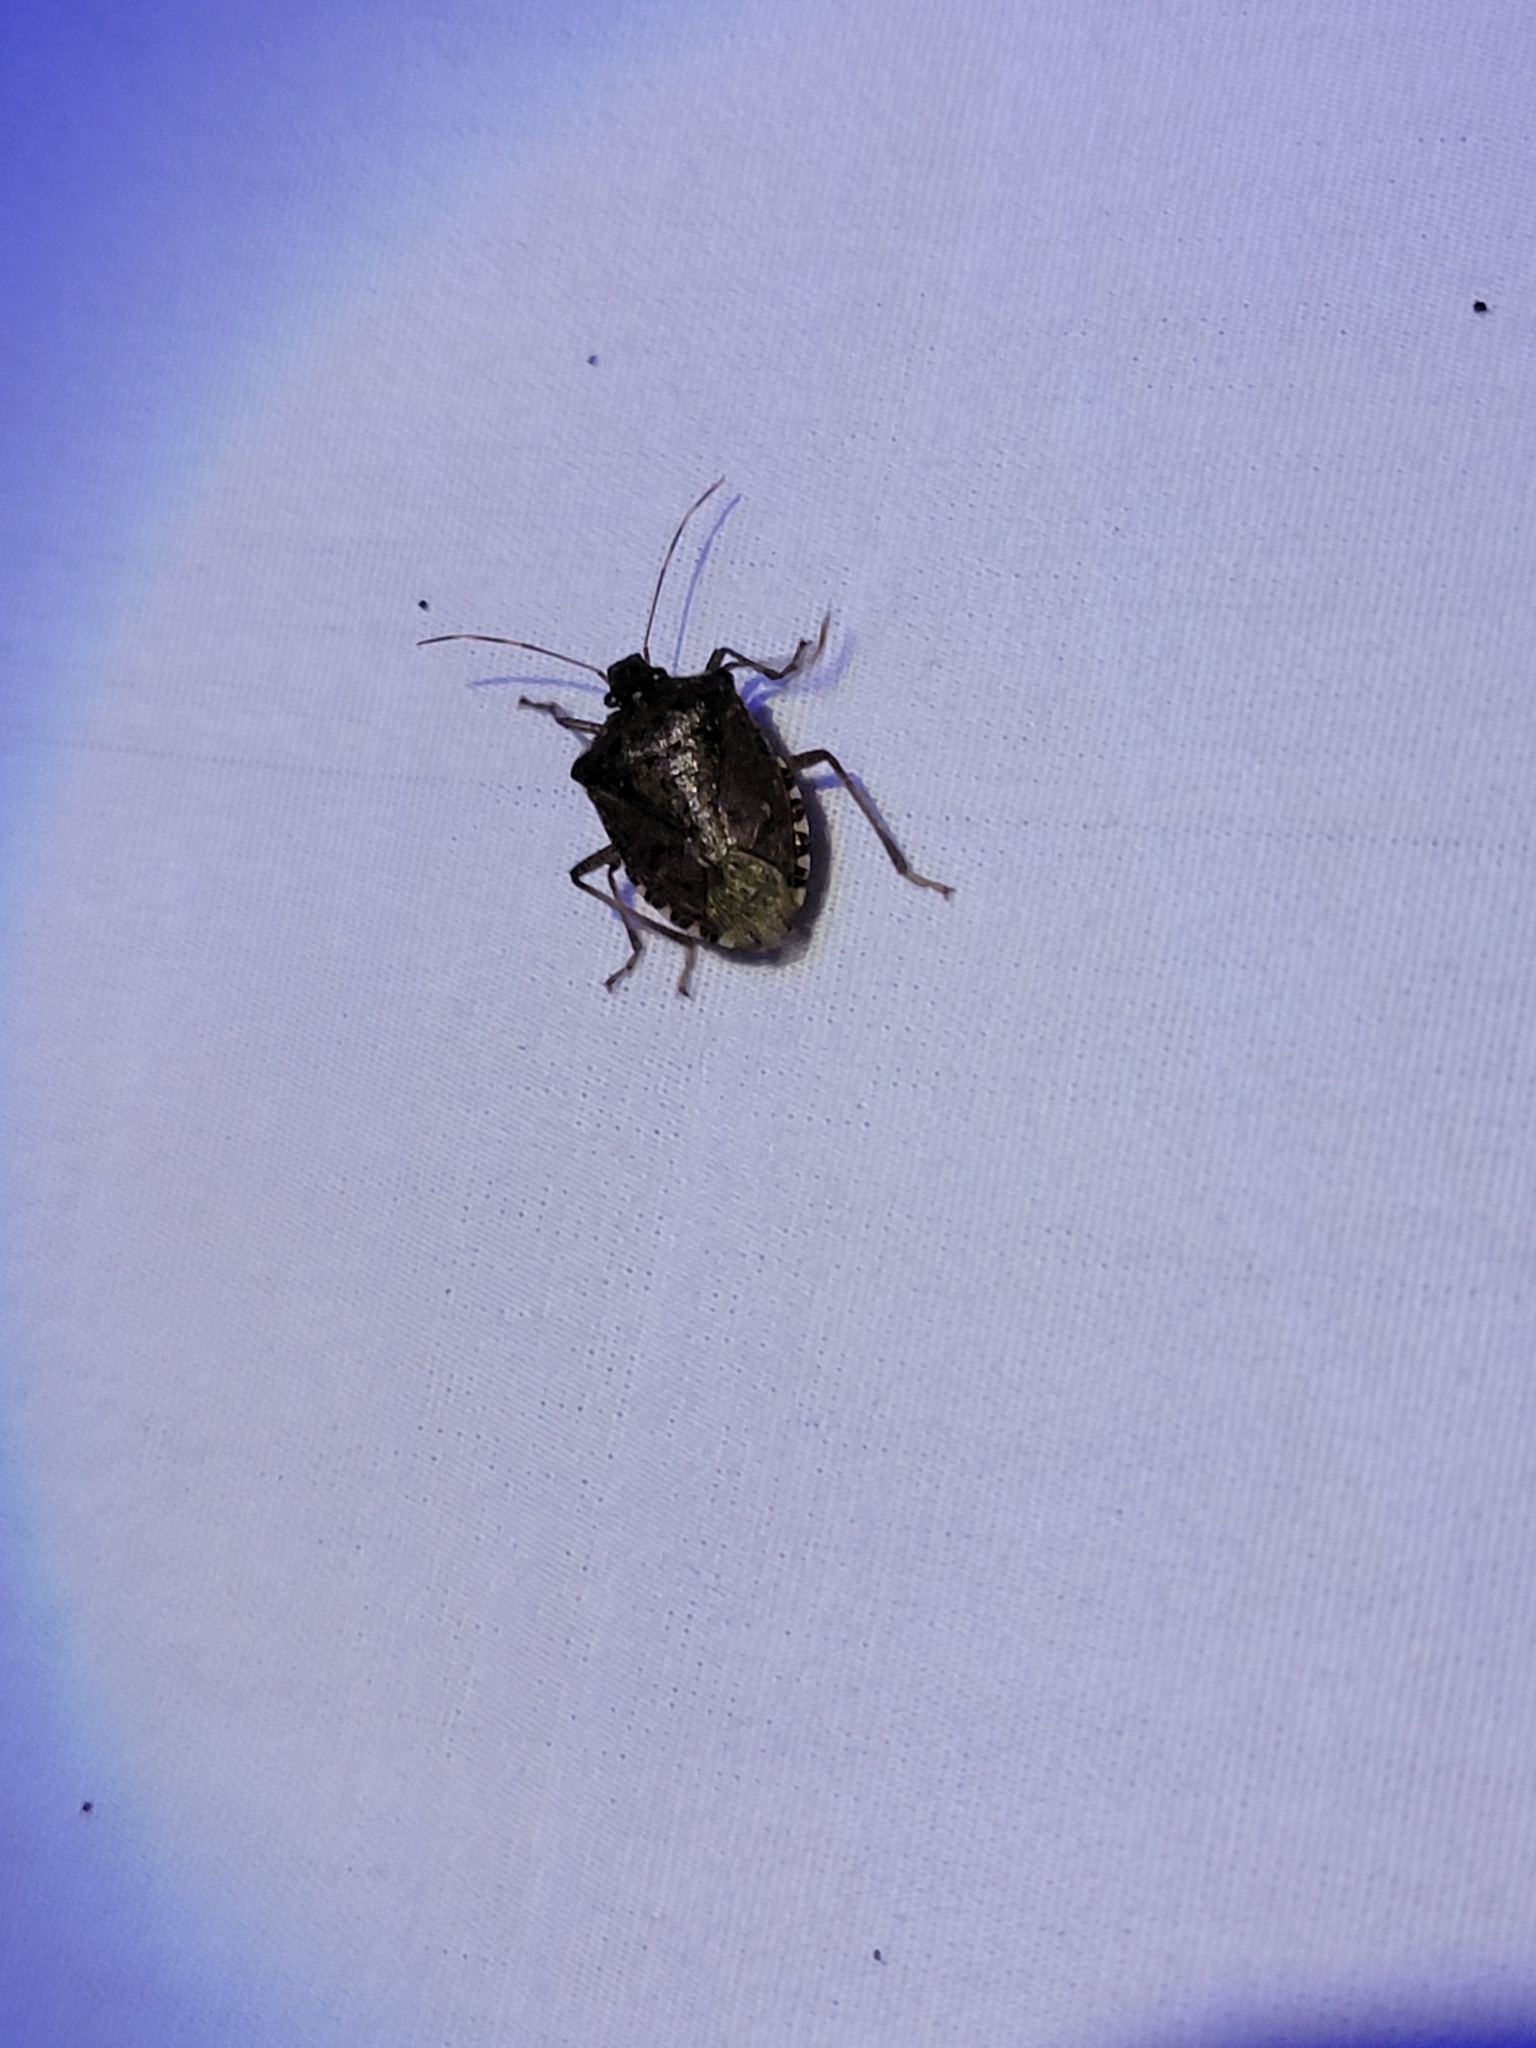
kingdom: Animalia
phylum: Arthropoda
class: Insecta
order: Hemiptera
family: Pentatomidae
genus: Halyomorpha
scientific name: Halyomorpha halys
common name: Brown marmorated stink bug
